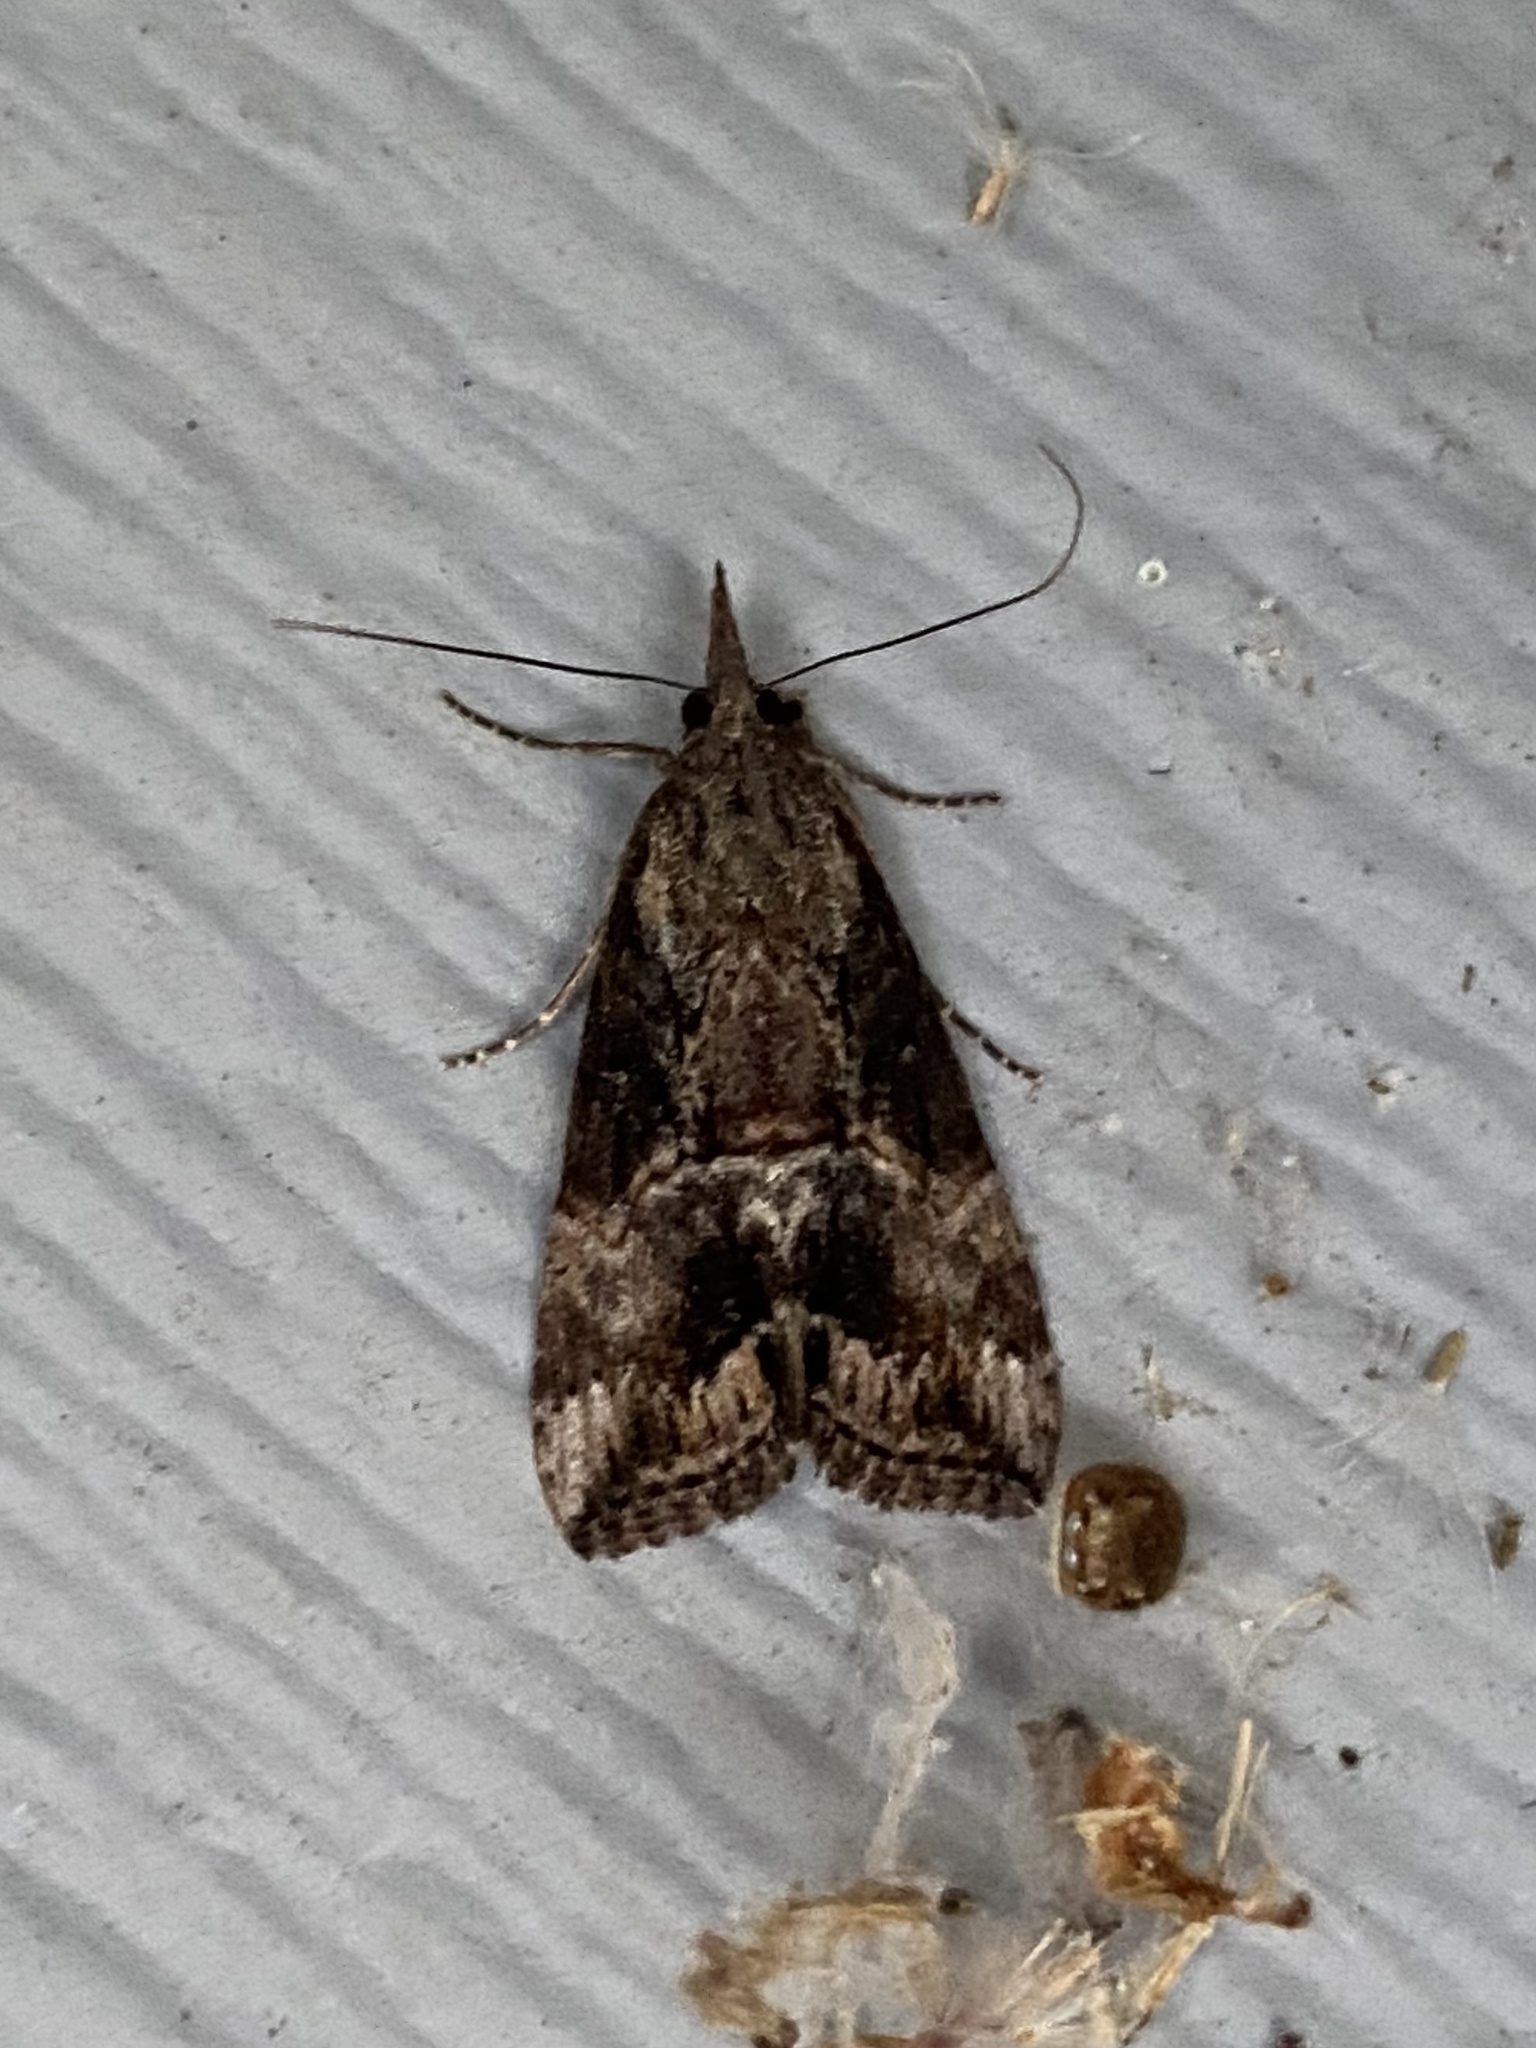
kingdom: Animalia
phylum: Arthropoda
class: Insecta
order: Lepidoptera
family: Erebidae
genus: Hypena
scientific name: Hypena scabra
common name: Green cloverworm
